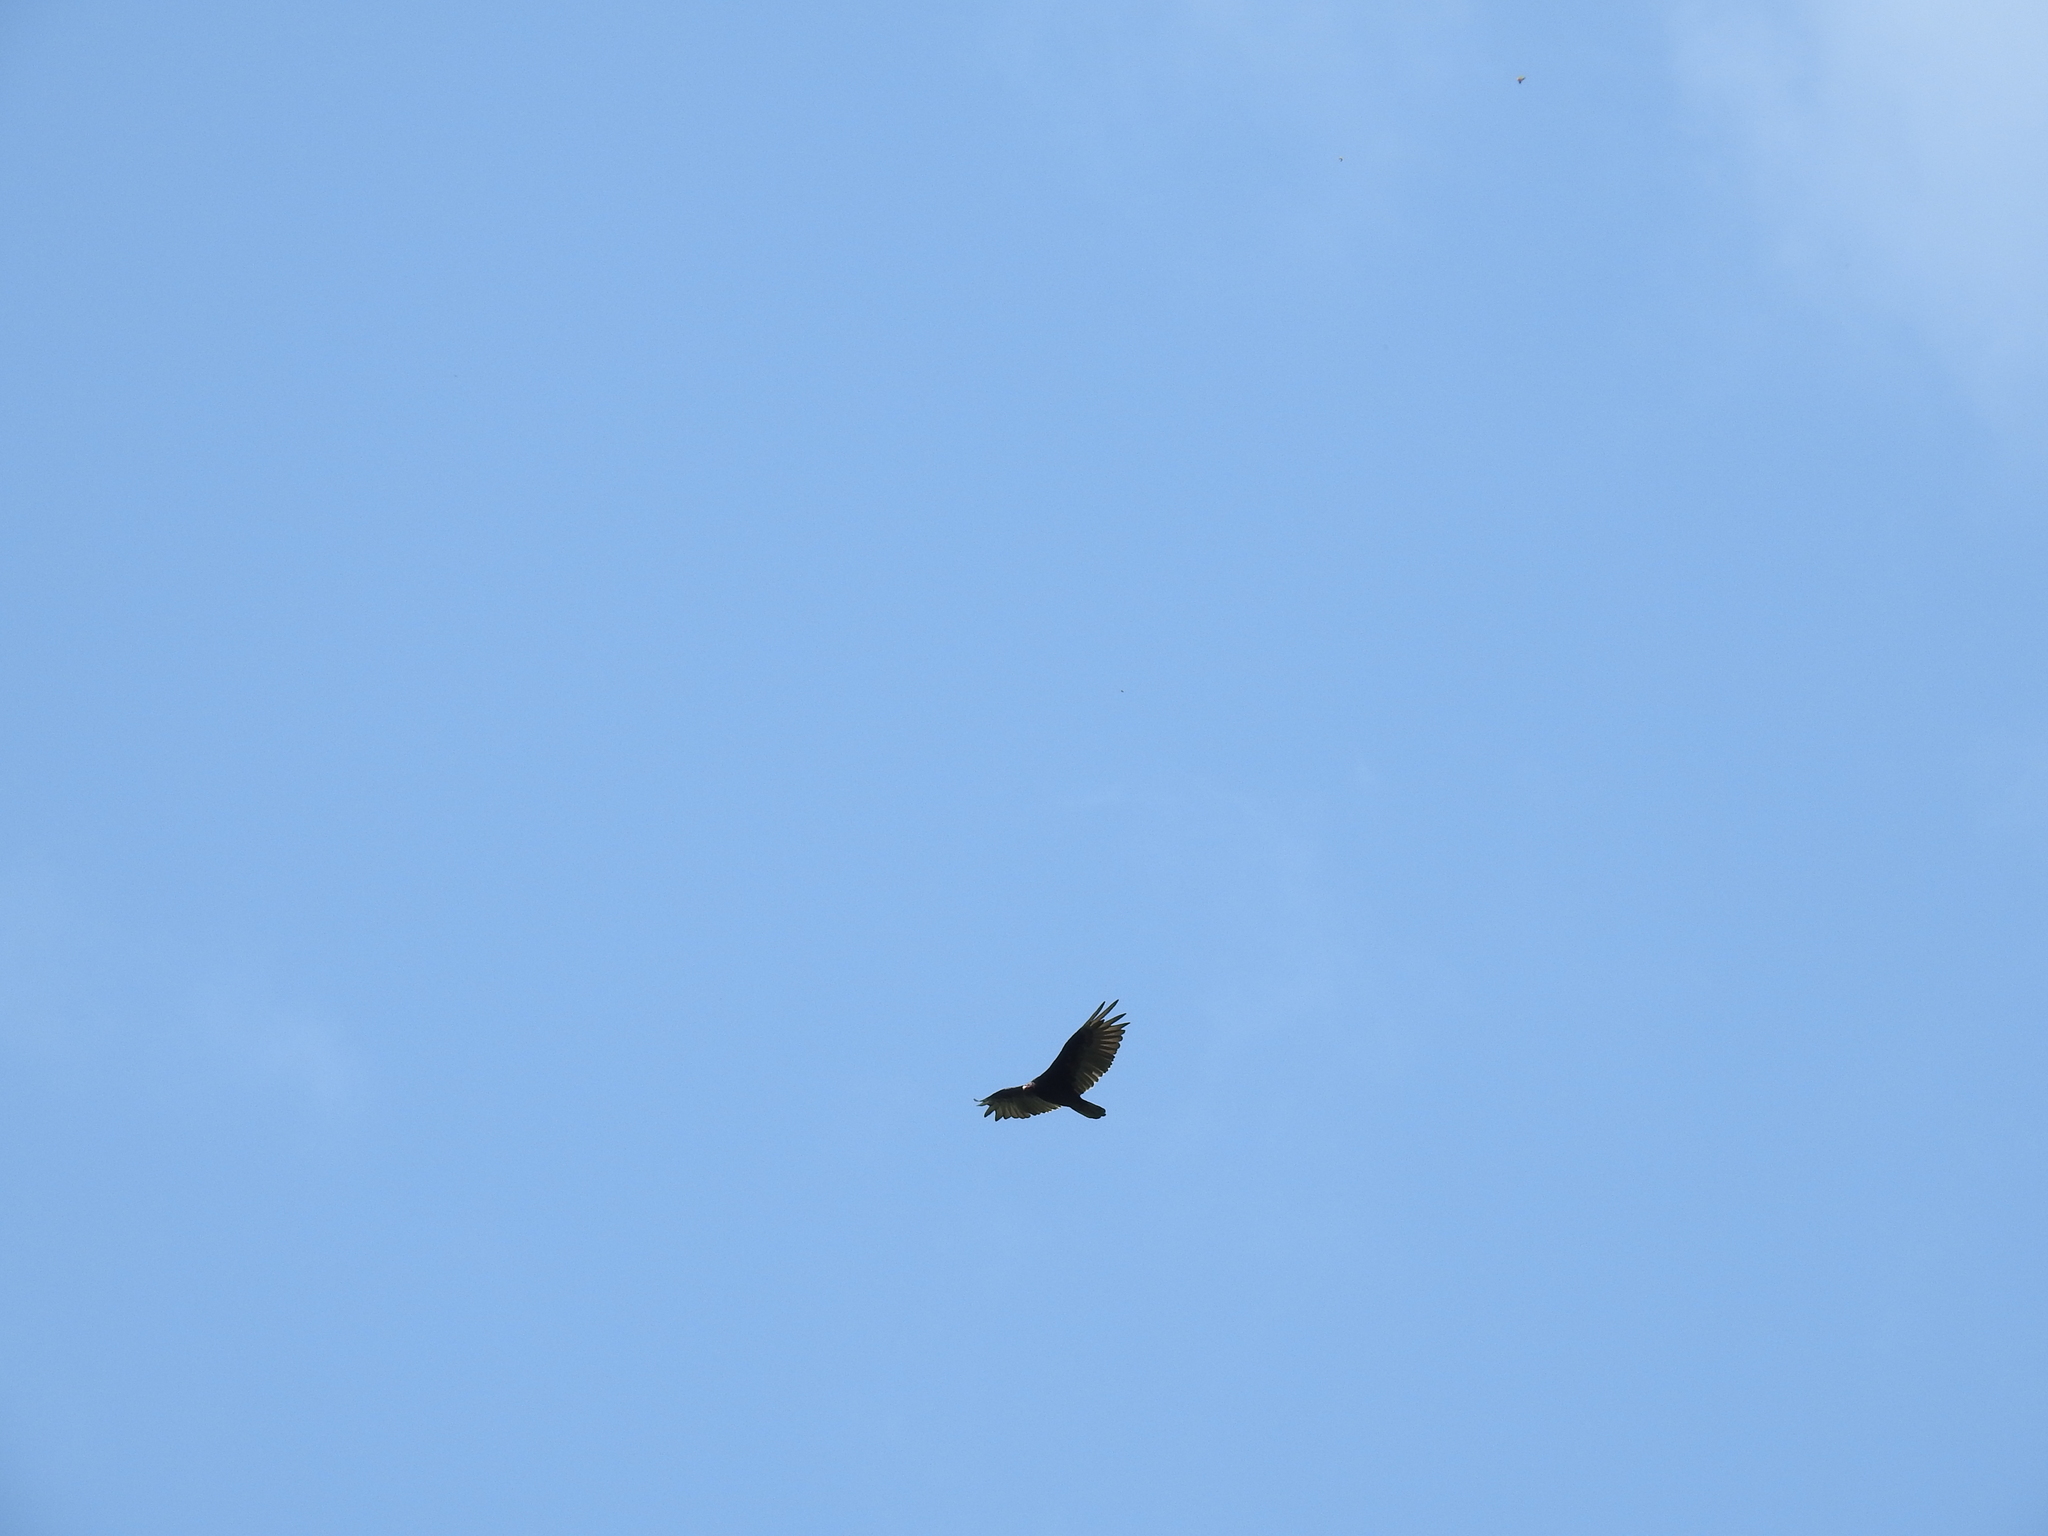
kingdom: Animalia
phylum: Chordata
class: Aves
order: Accipitriformes
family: Cathartidae
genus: Cathartes
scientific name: Cathartes aura
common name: Turkey vulture
